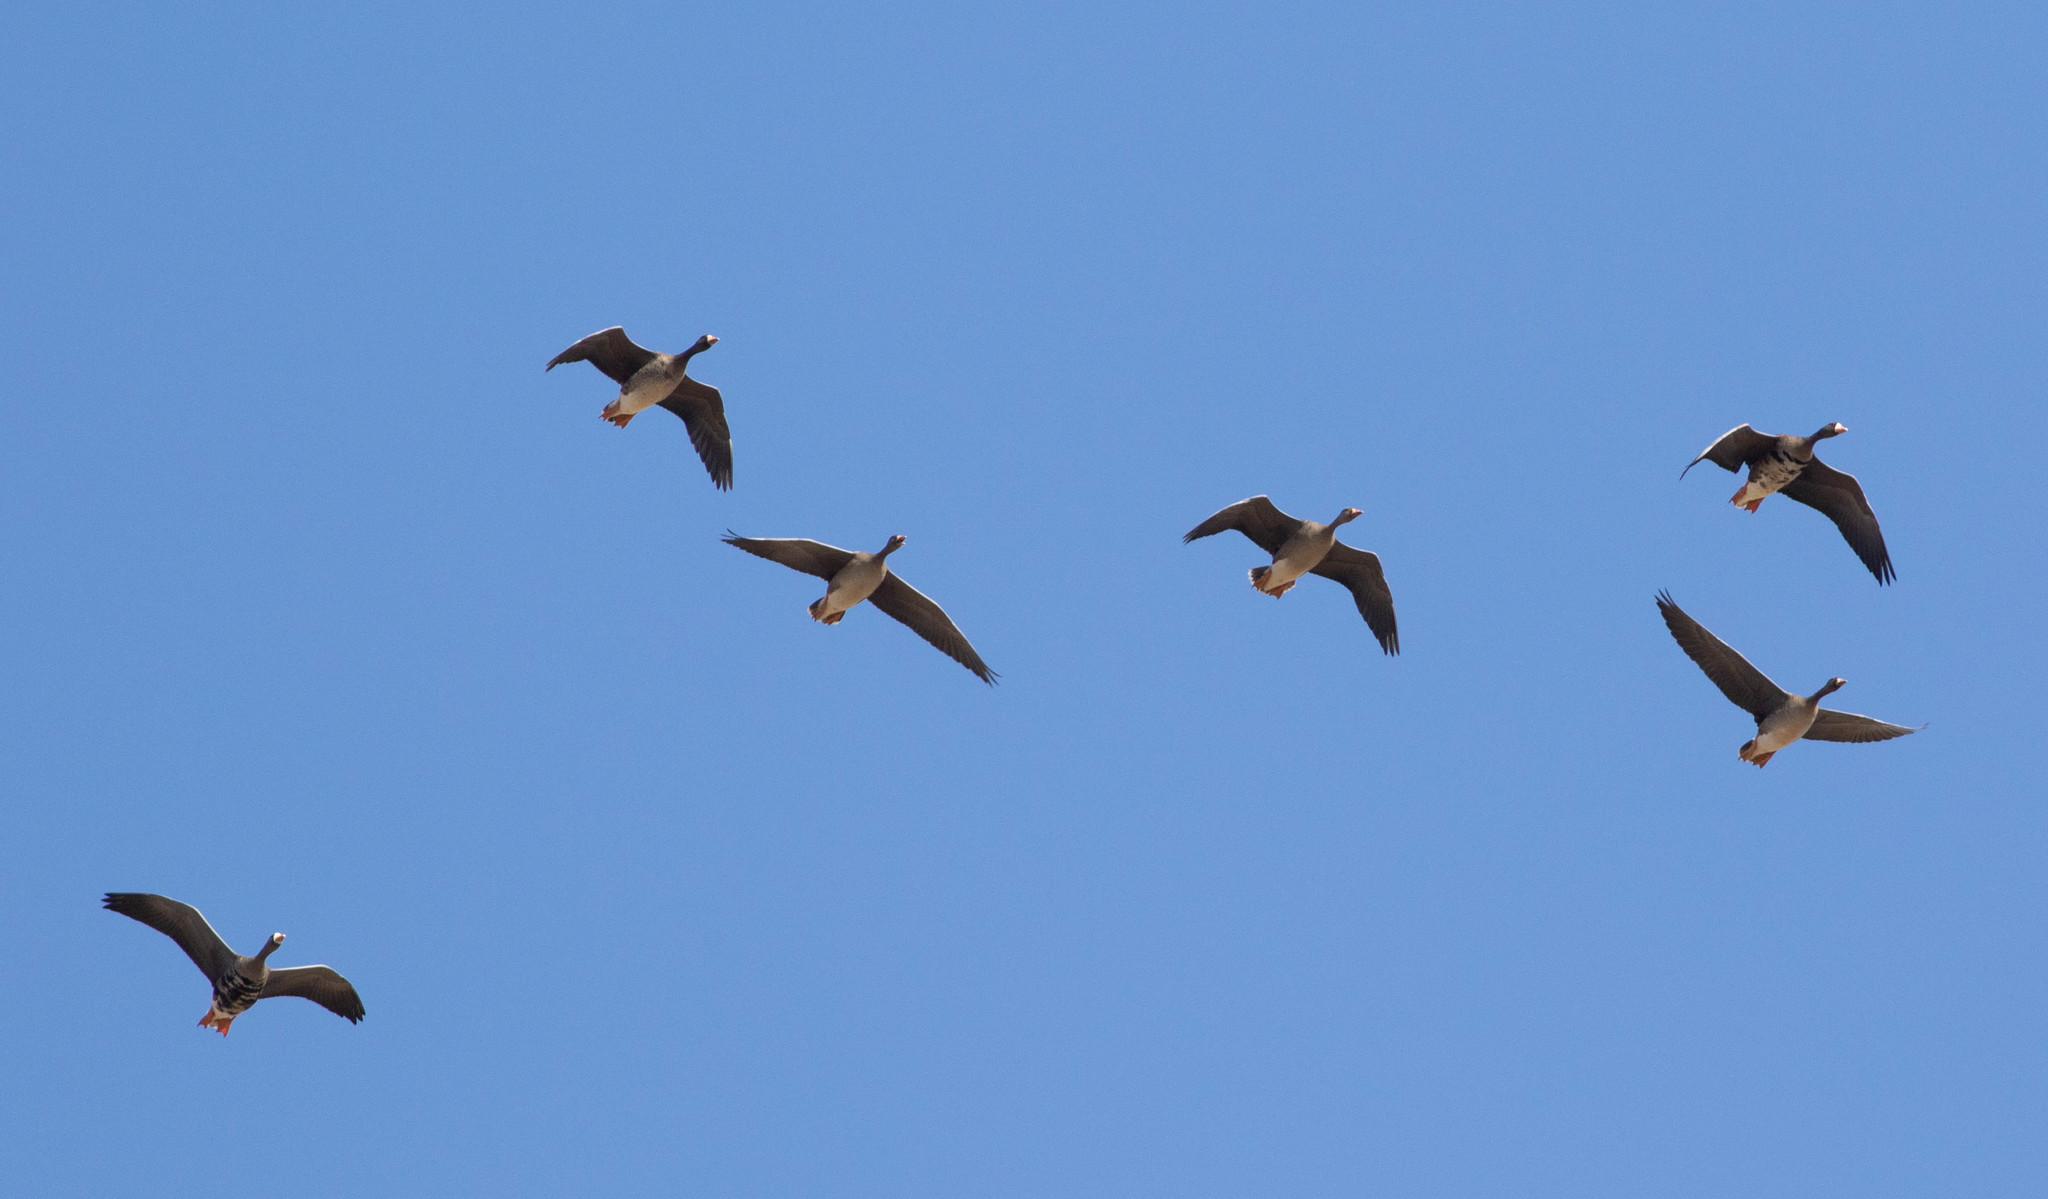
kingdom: Animalia
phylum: Chordata
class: Aves
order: Anseriformes
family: Anatidae
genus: Anser
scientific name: Anser albifrons
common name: Greater white-fronted goose
